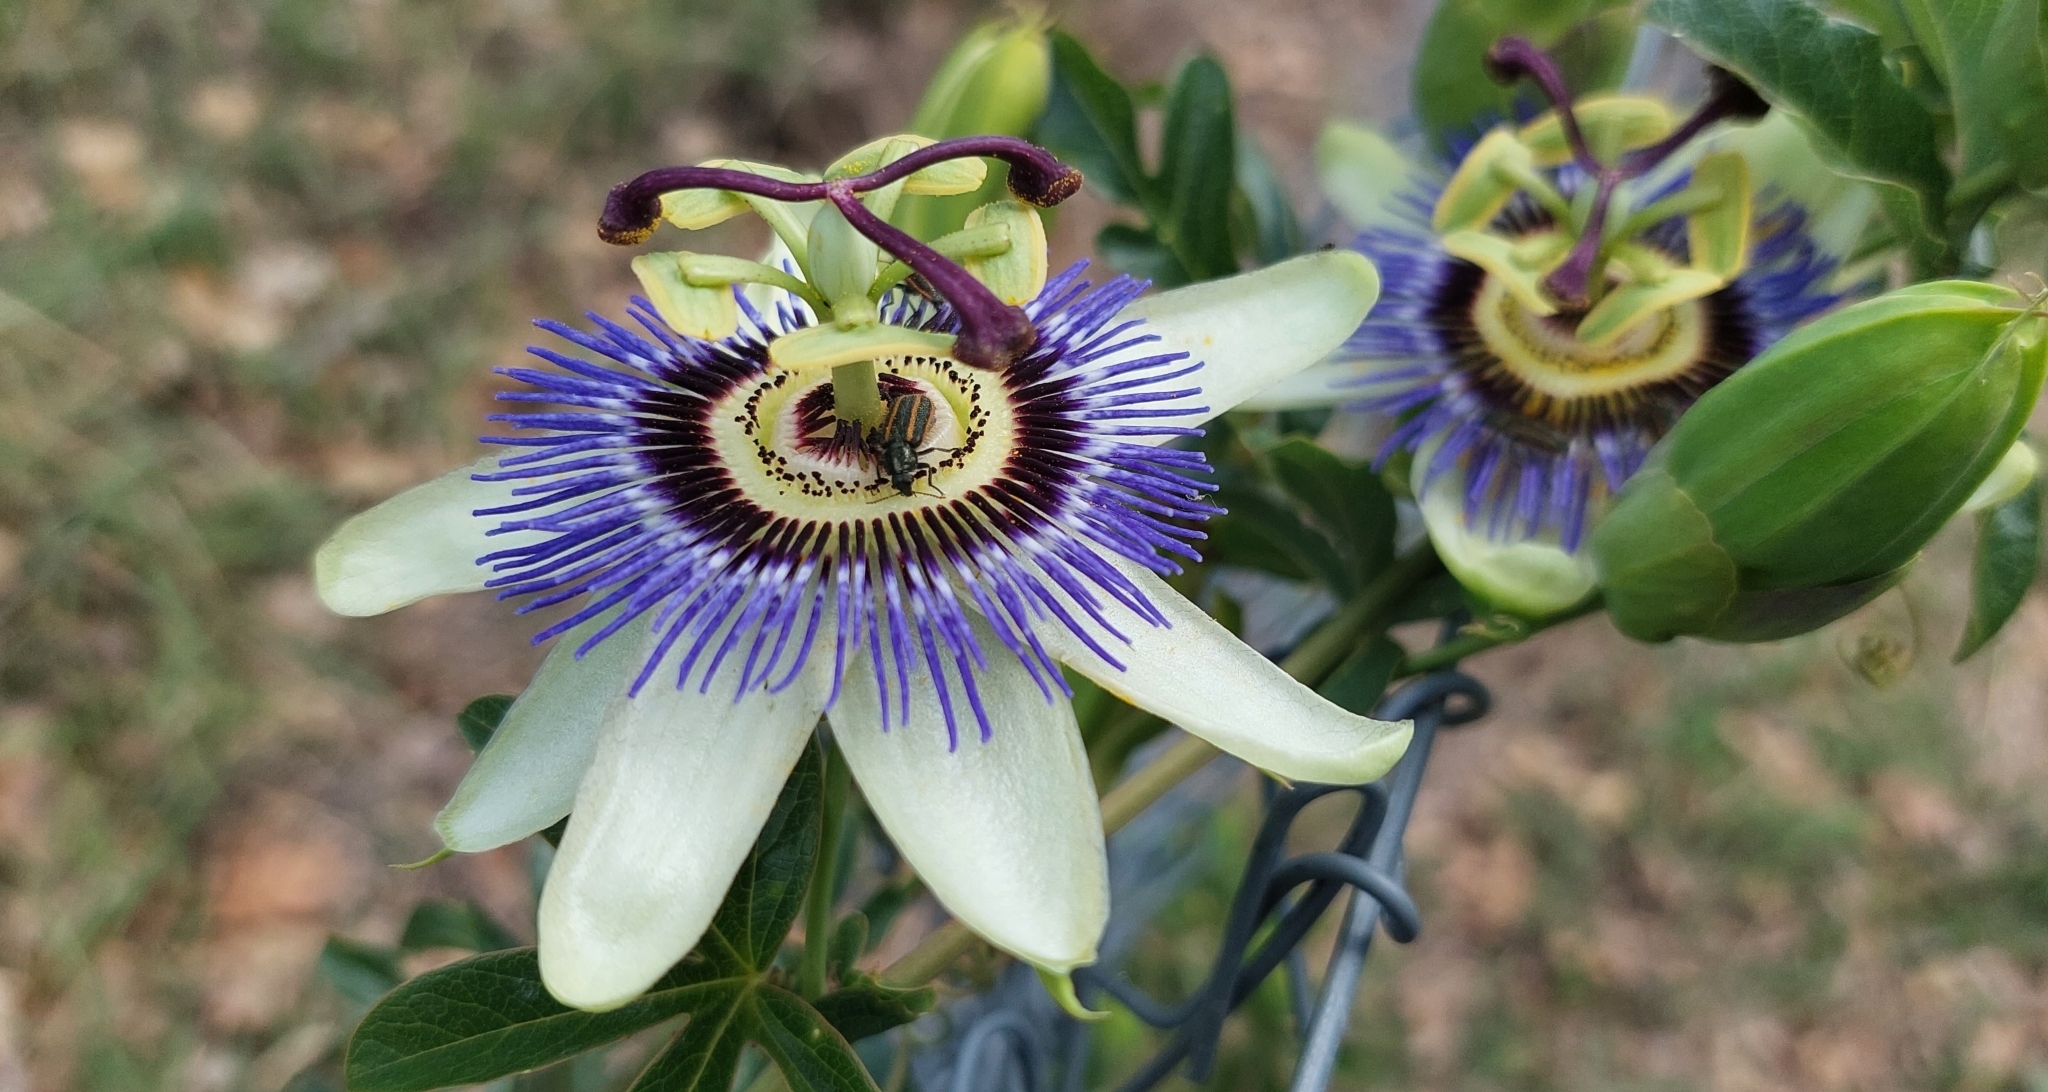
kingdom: Plantae
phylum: Tracheophyta
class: Magnoliopsida
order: Malpighiales
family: Passifloraceae
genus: Passiflora
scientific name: Passiflora caerulea
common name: Blue passionflower
